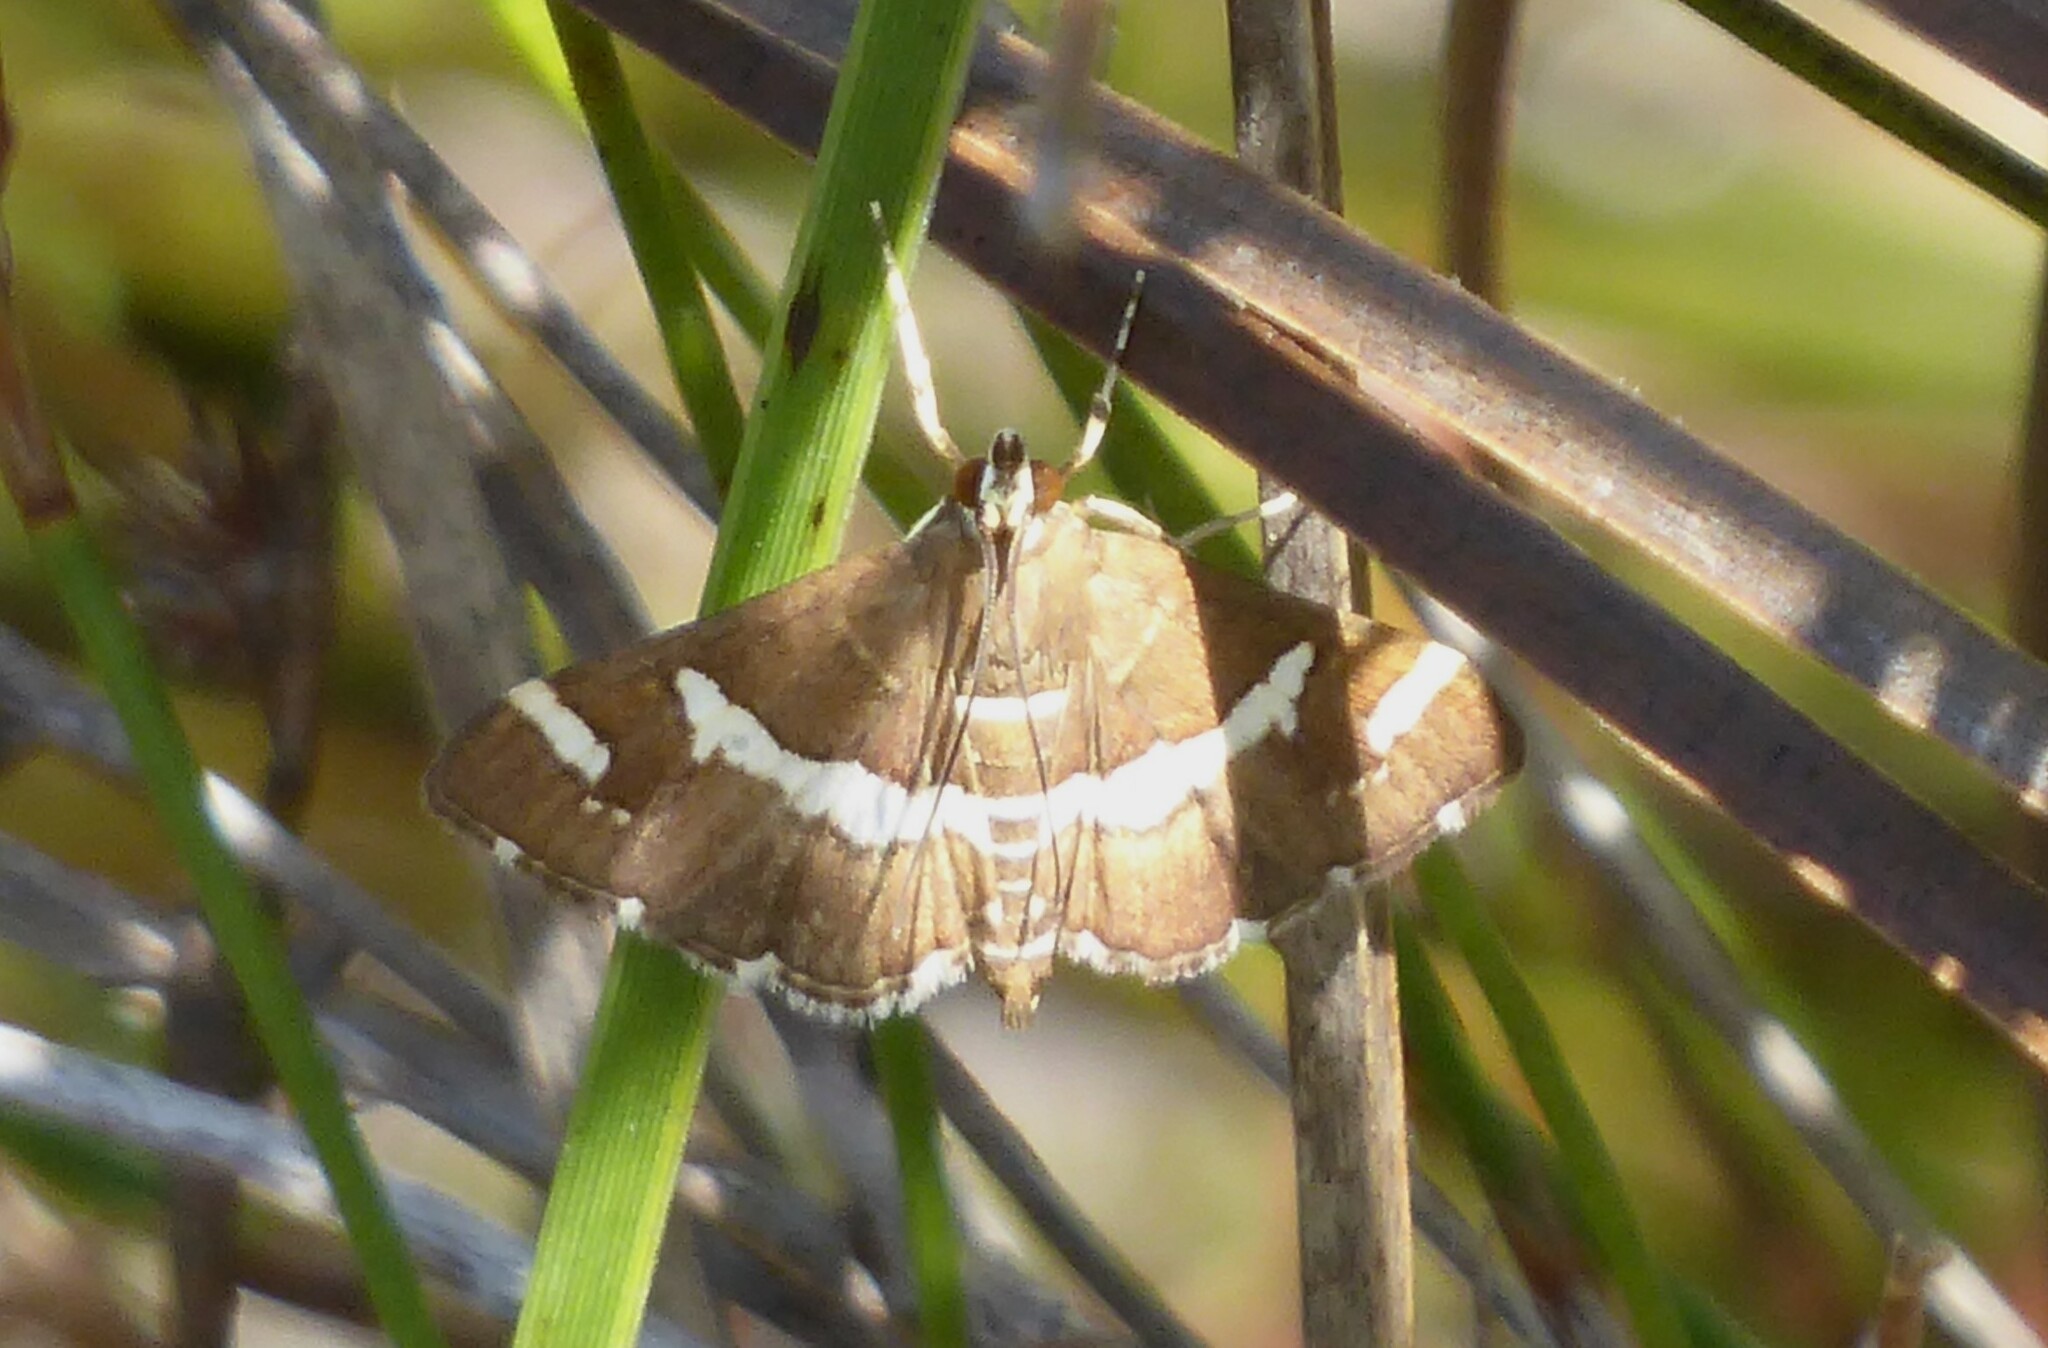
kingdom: Animalia
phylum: Arthropoda
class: Insecta
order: Lepidoptera
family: Crambidae
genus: Spoladea
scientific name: Spoladea recurvalis
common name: Beet webworm moth
